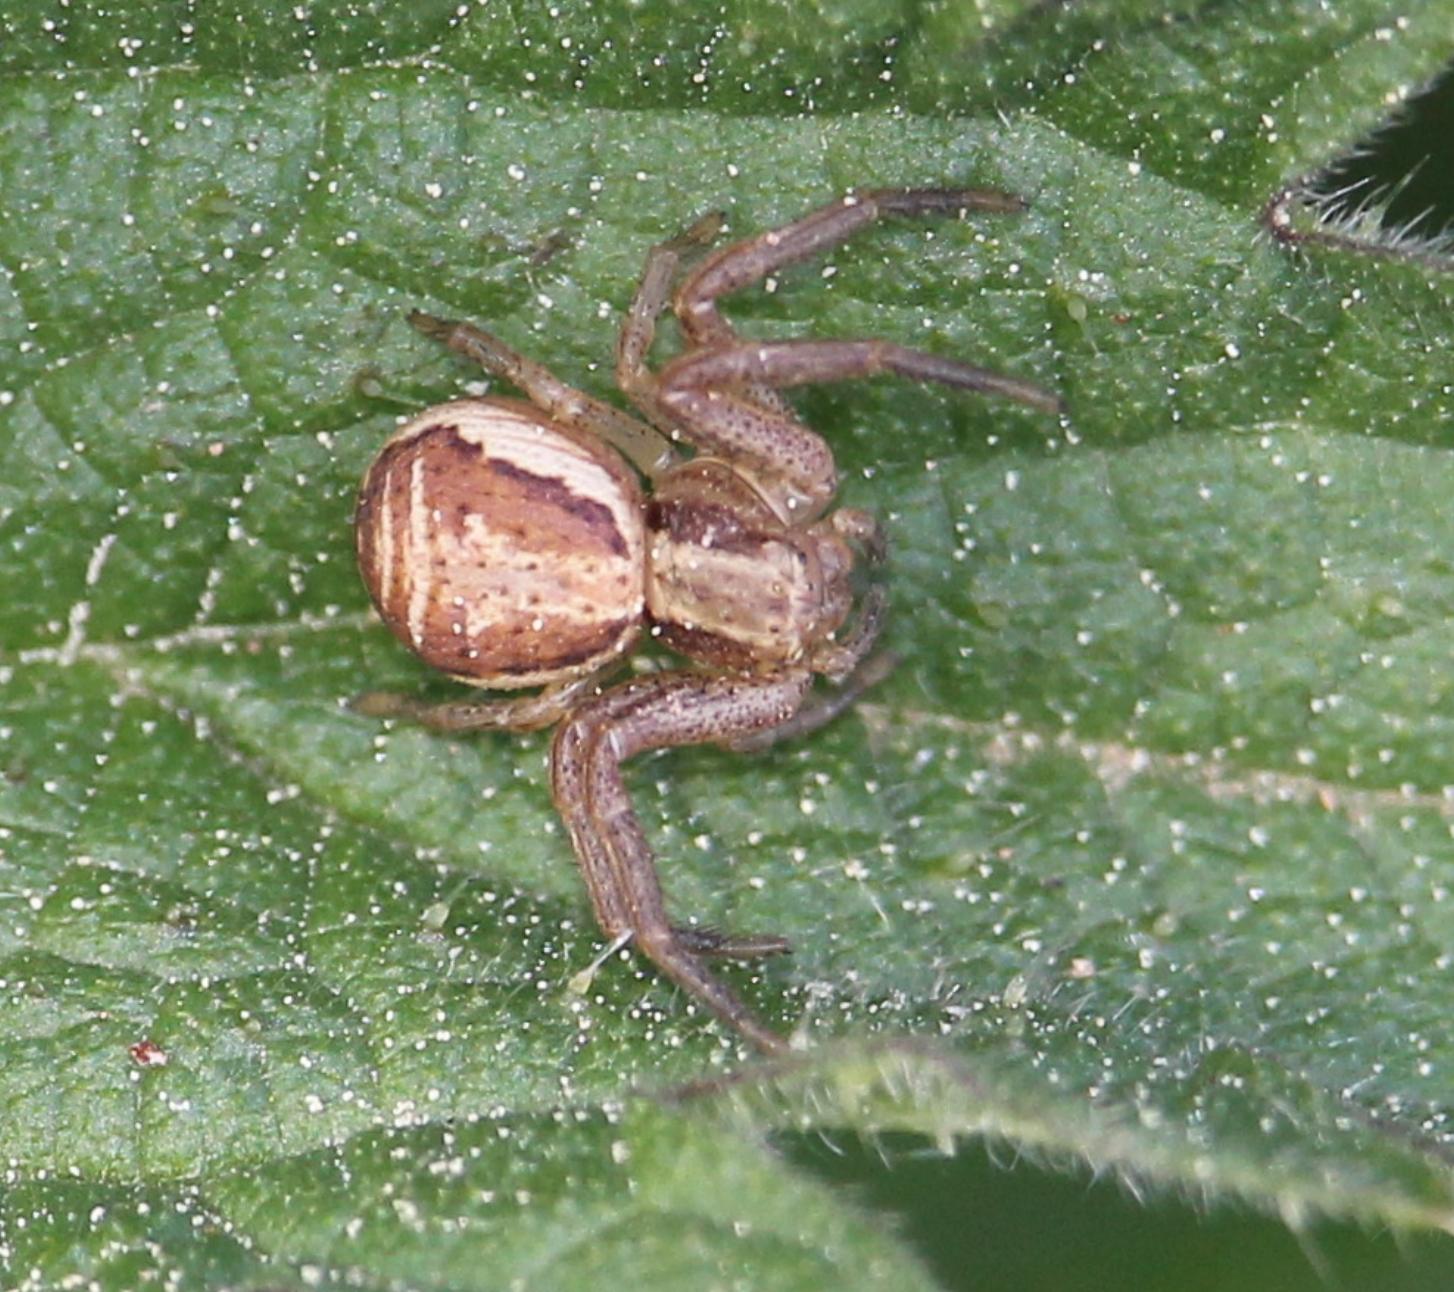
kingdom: Animalia
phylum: Arthropoda
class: Arachnida
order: Araneae
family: Thomisidae
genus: Xysticus
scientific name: Xysticus ulmi
